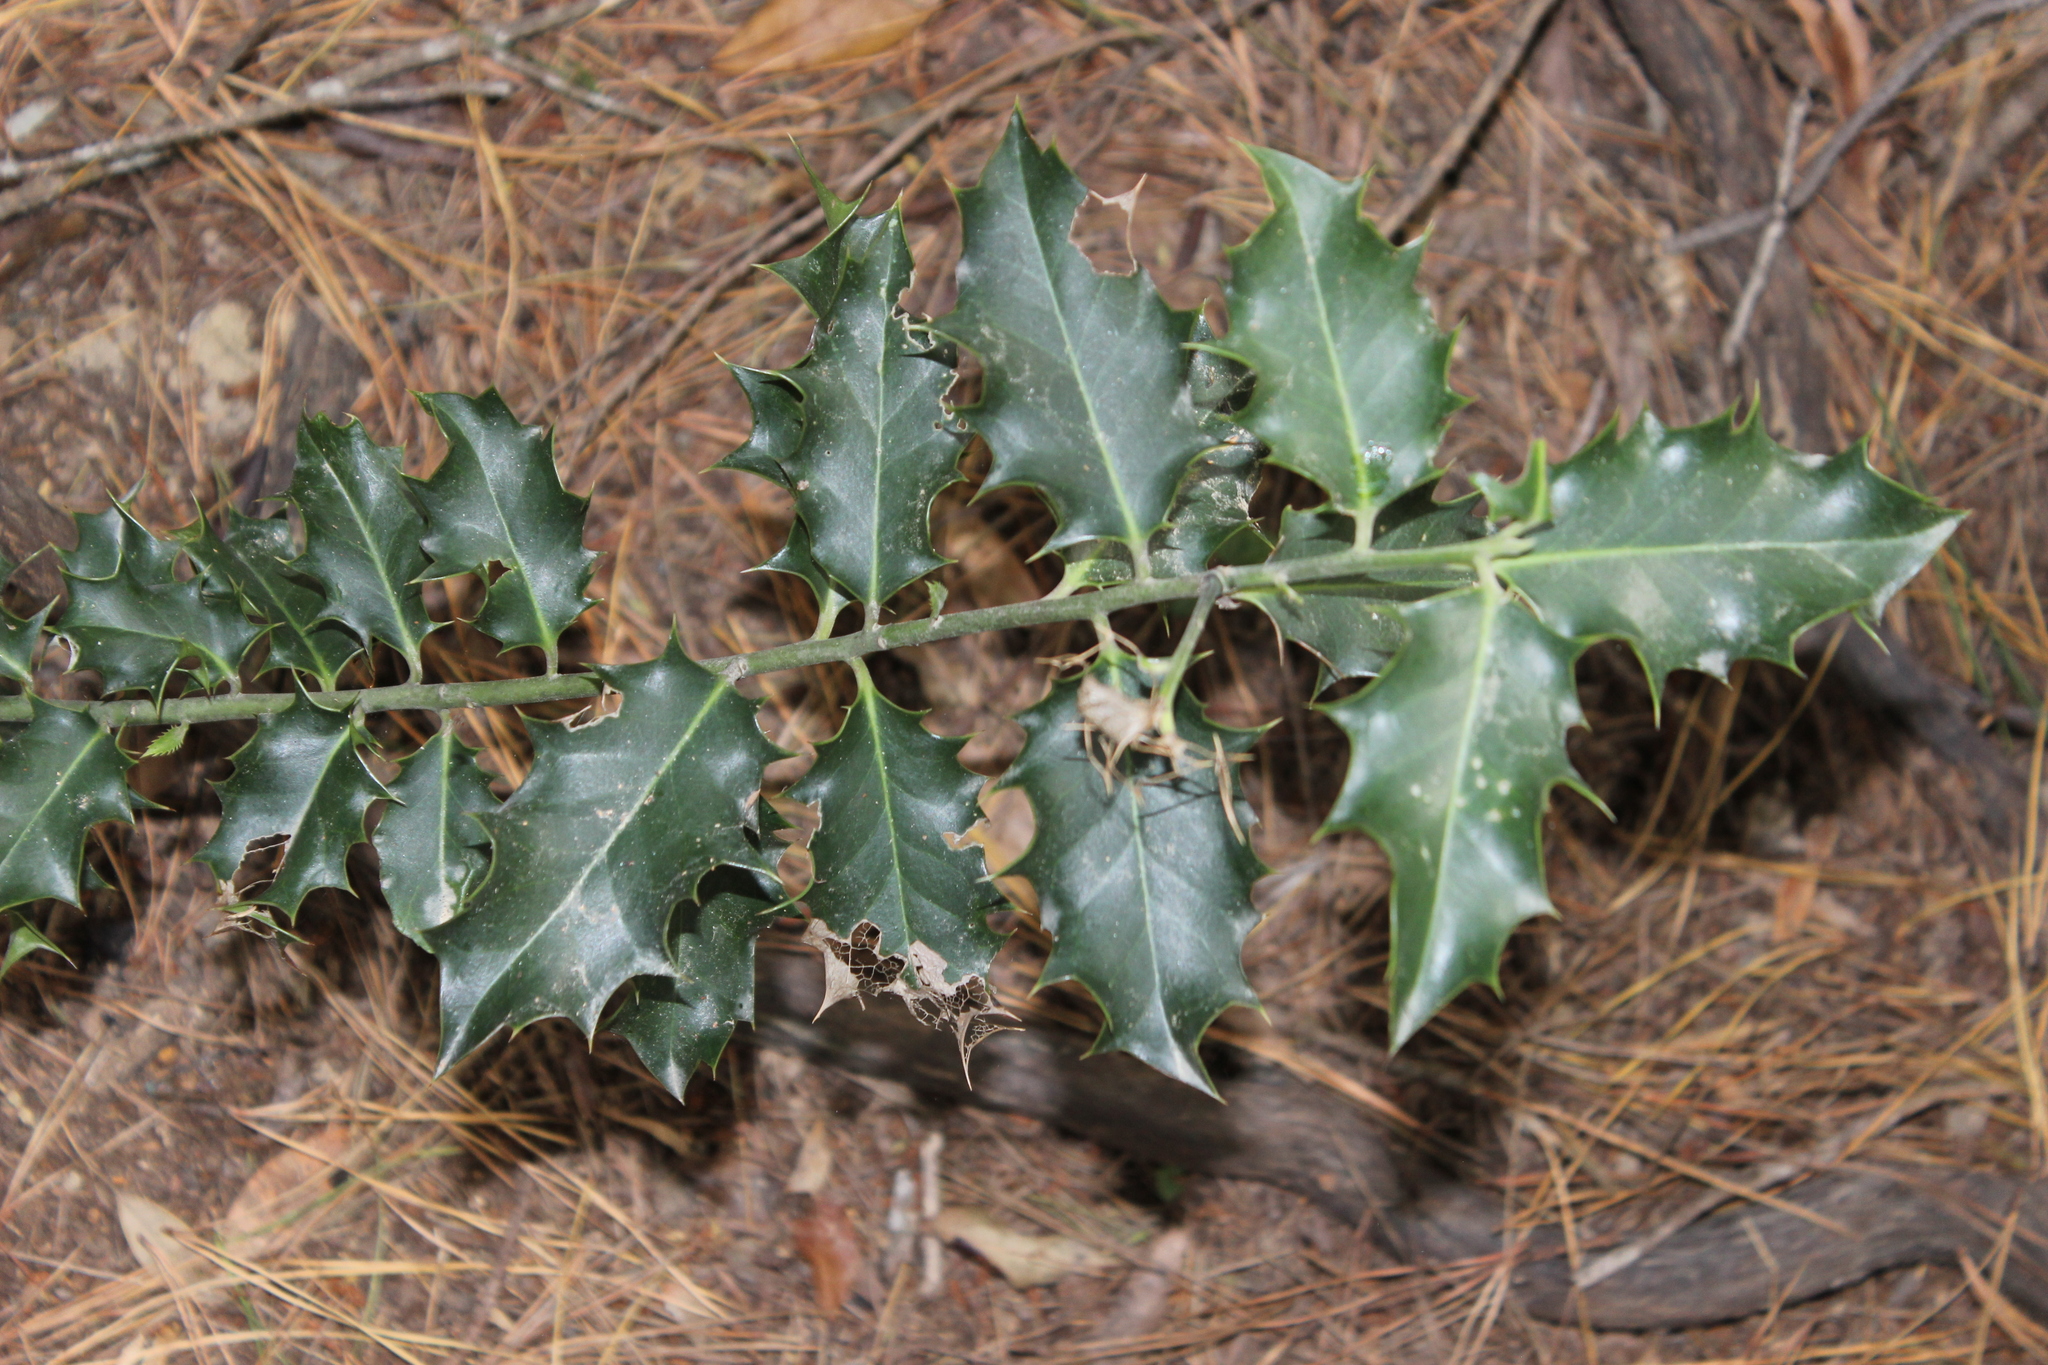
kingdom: Plantae
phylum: Tracheophyta
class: Magnoliopsida
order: Aquifoliales
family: Aquifoliaceae
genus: Ilex
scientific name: Ilex aquifolium
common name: English holly
